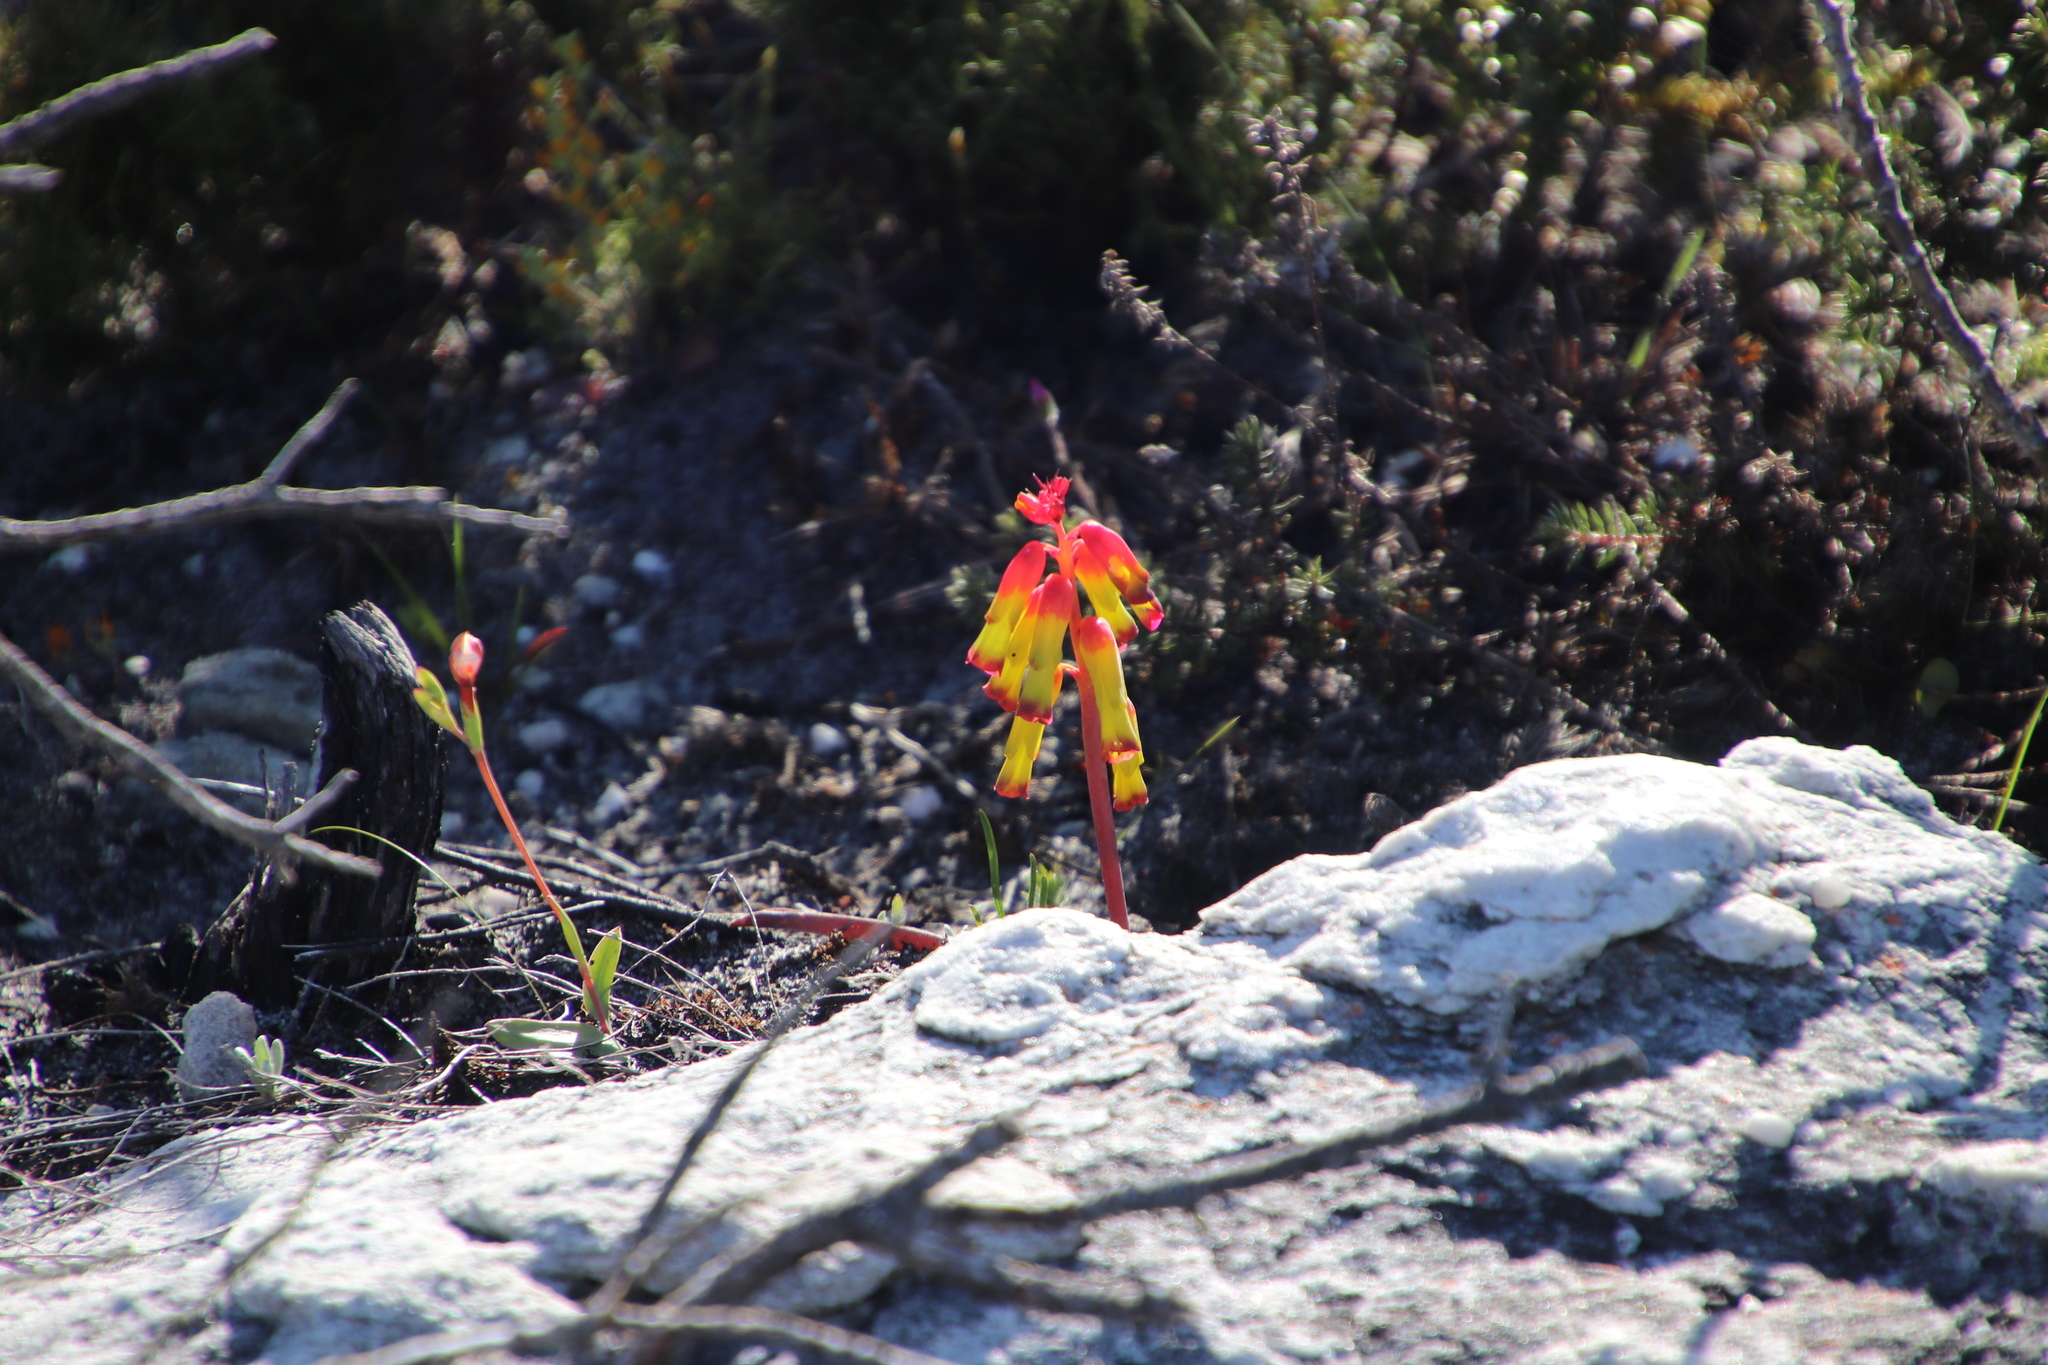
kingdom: Plantae
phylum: Tracheophyta
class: Liliopsida
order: Asparagales
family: Asparagaceae
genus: Lachenalia
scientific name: Lachenalia luteola
